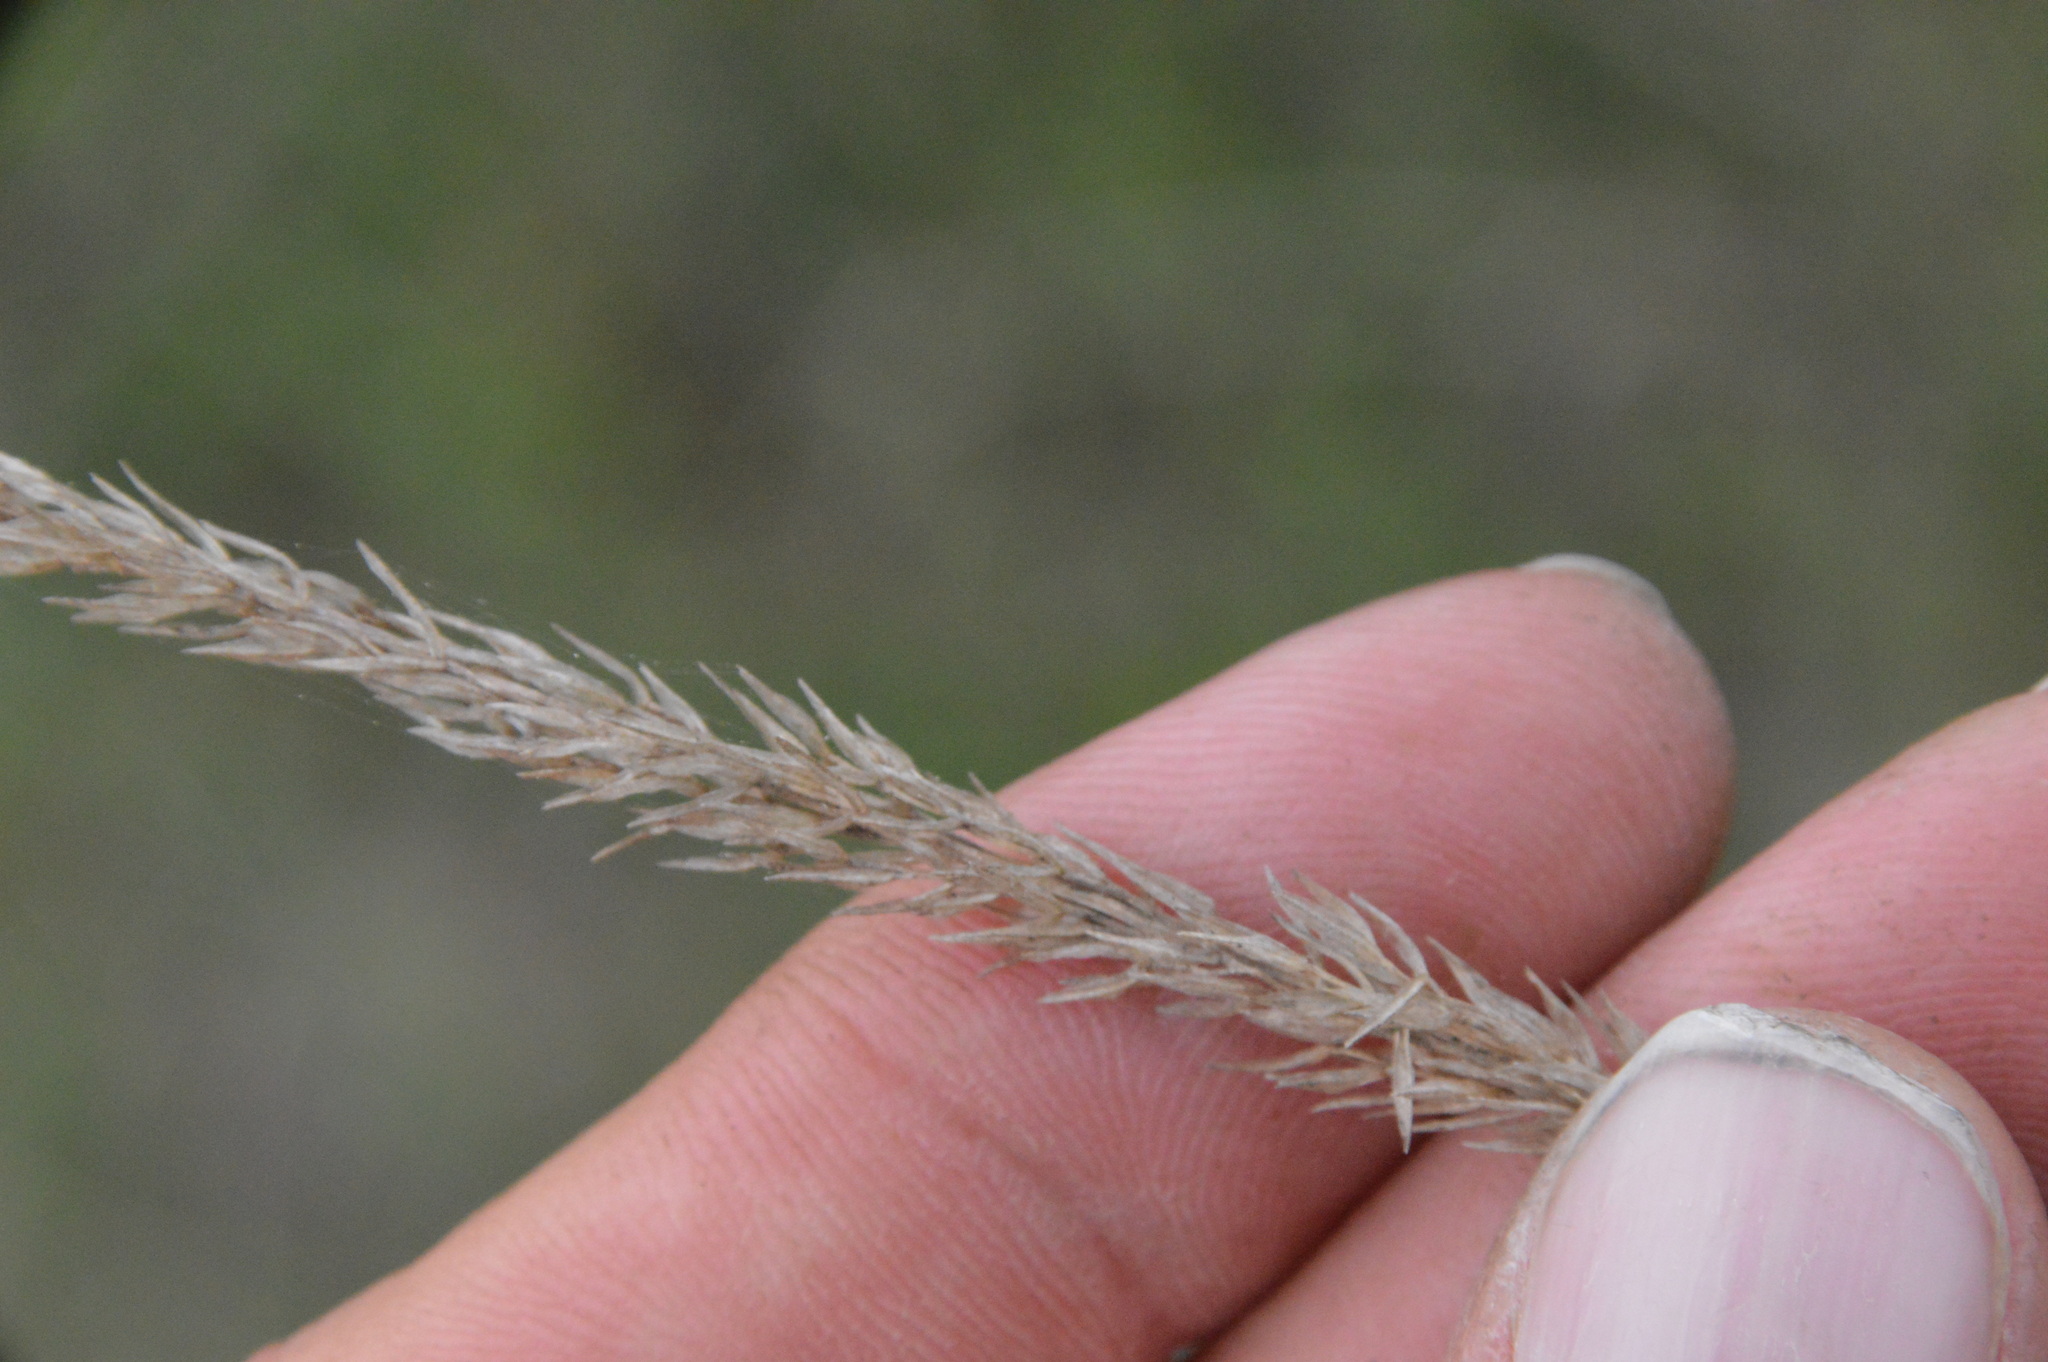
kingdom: Plantae
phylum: Tracheophyta
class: Liliopsida
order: Poales
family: Poaceae
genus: Tridens
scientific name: Tridens strictus
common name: Long-spike tridens
